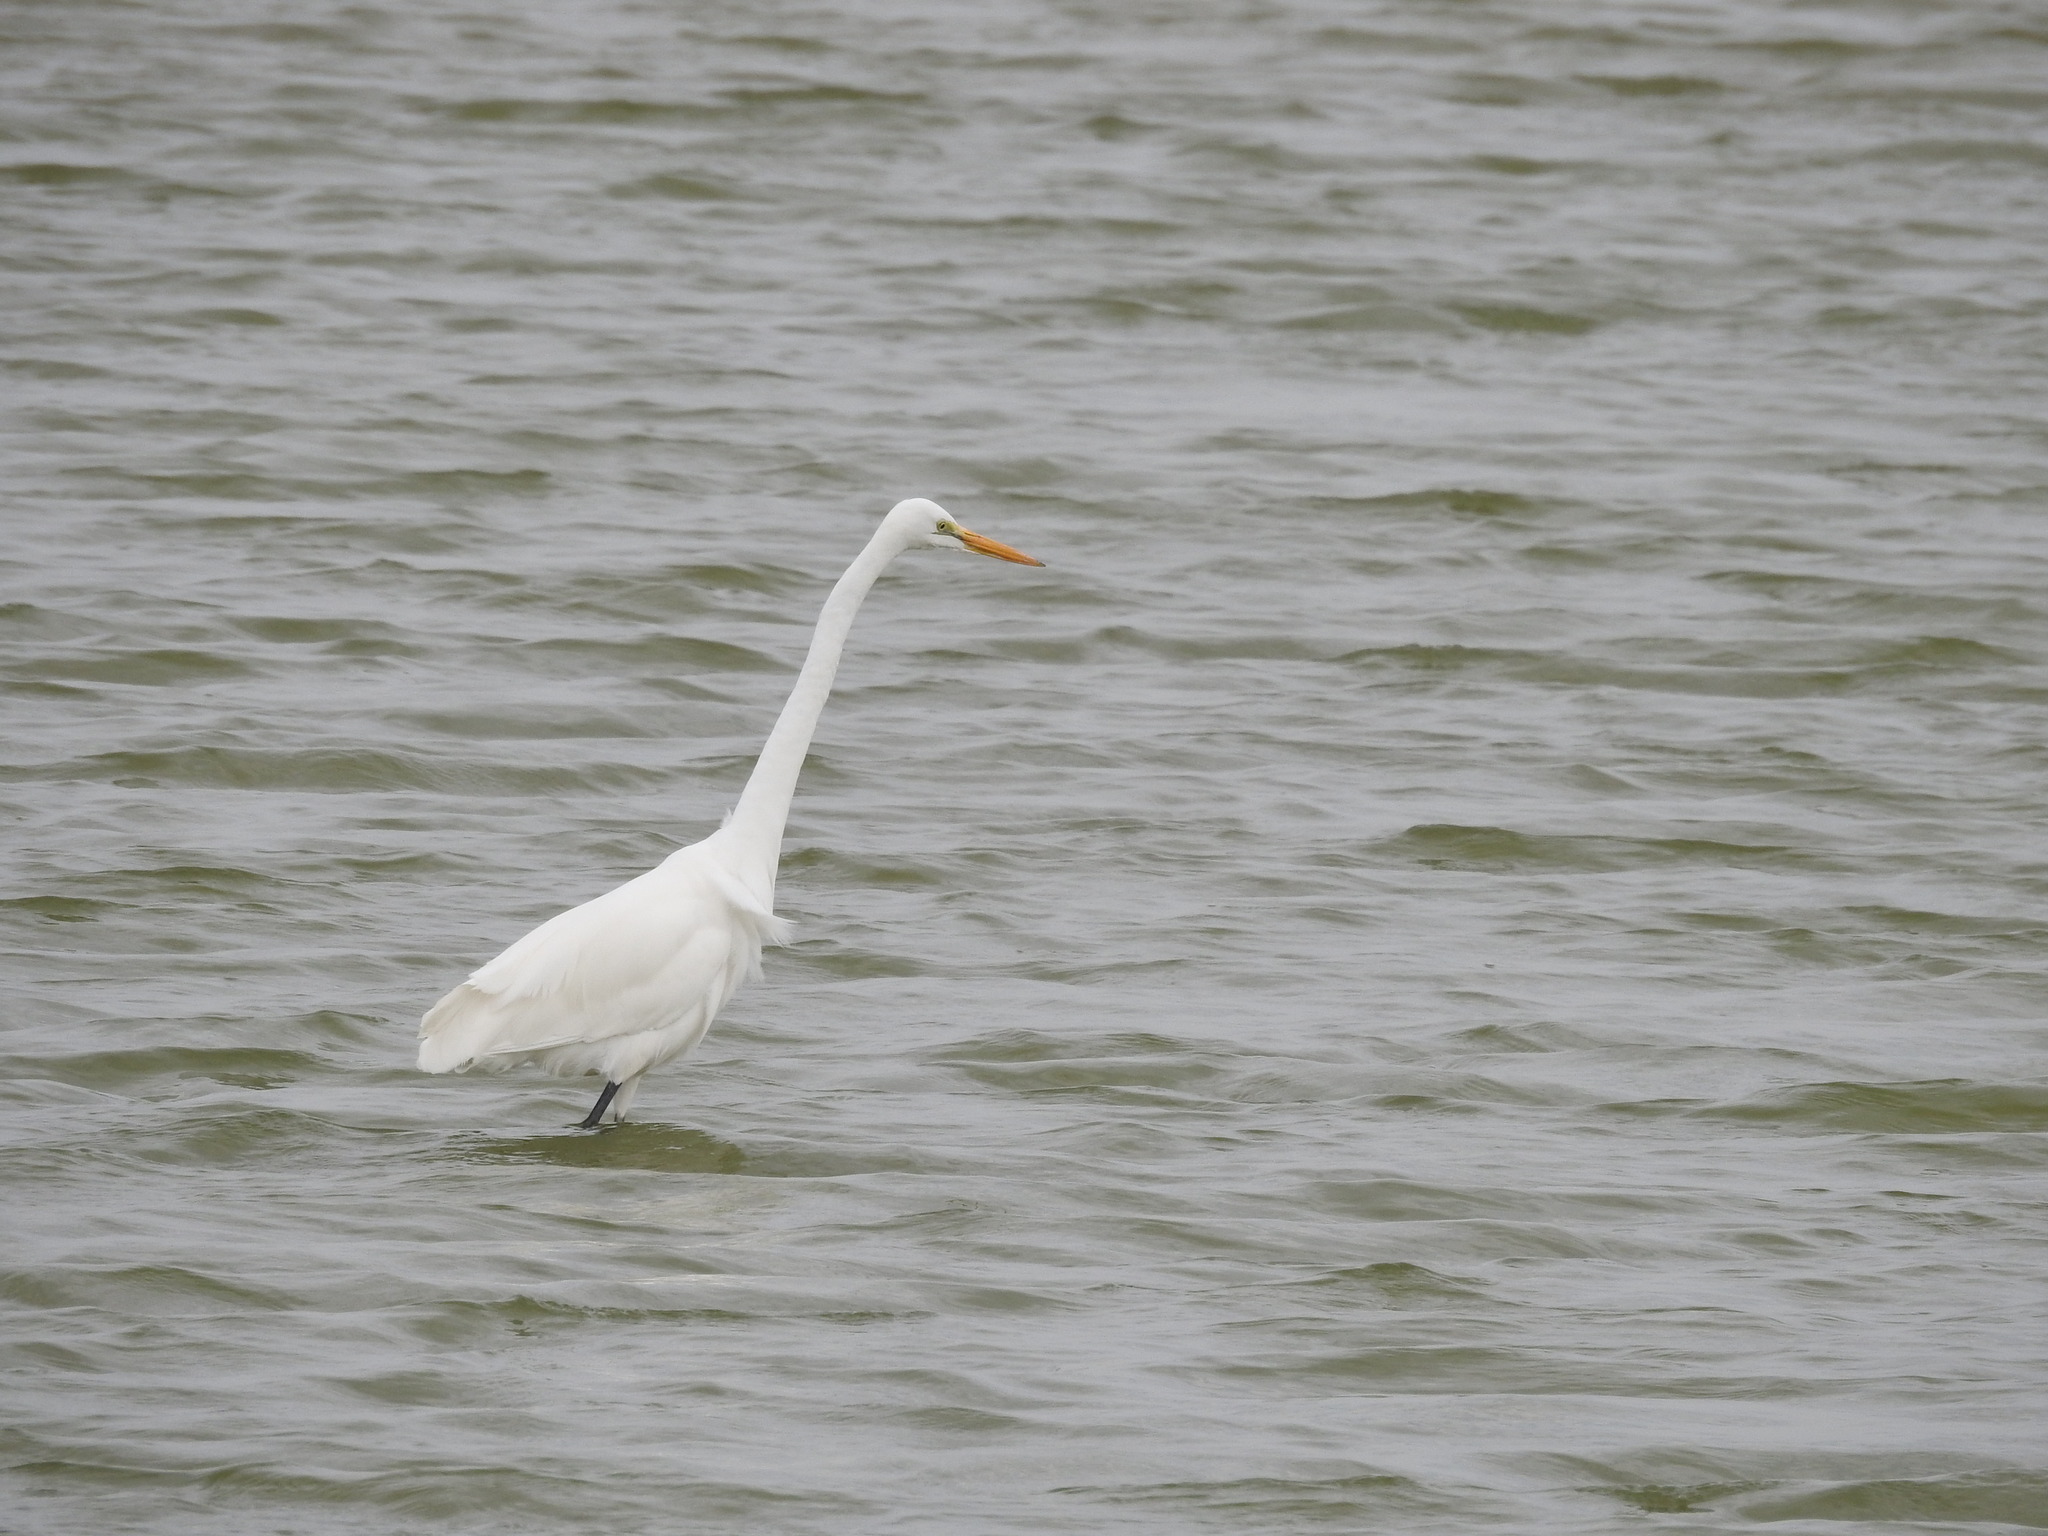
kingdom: Animalia
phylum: Chordata
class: Aves
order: Pelecaniformes
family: Ardeidae
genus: Ardea
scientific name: Ardea alba
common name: Great egret
